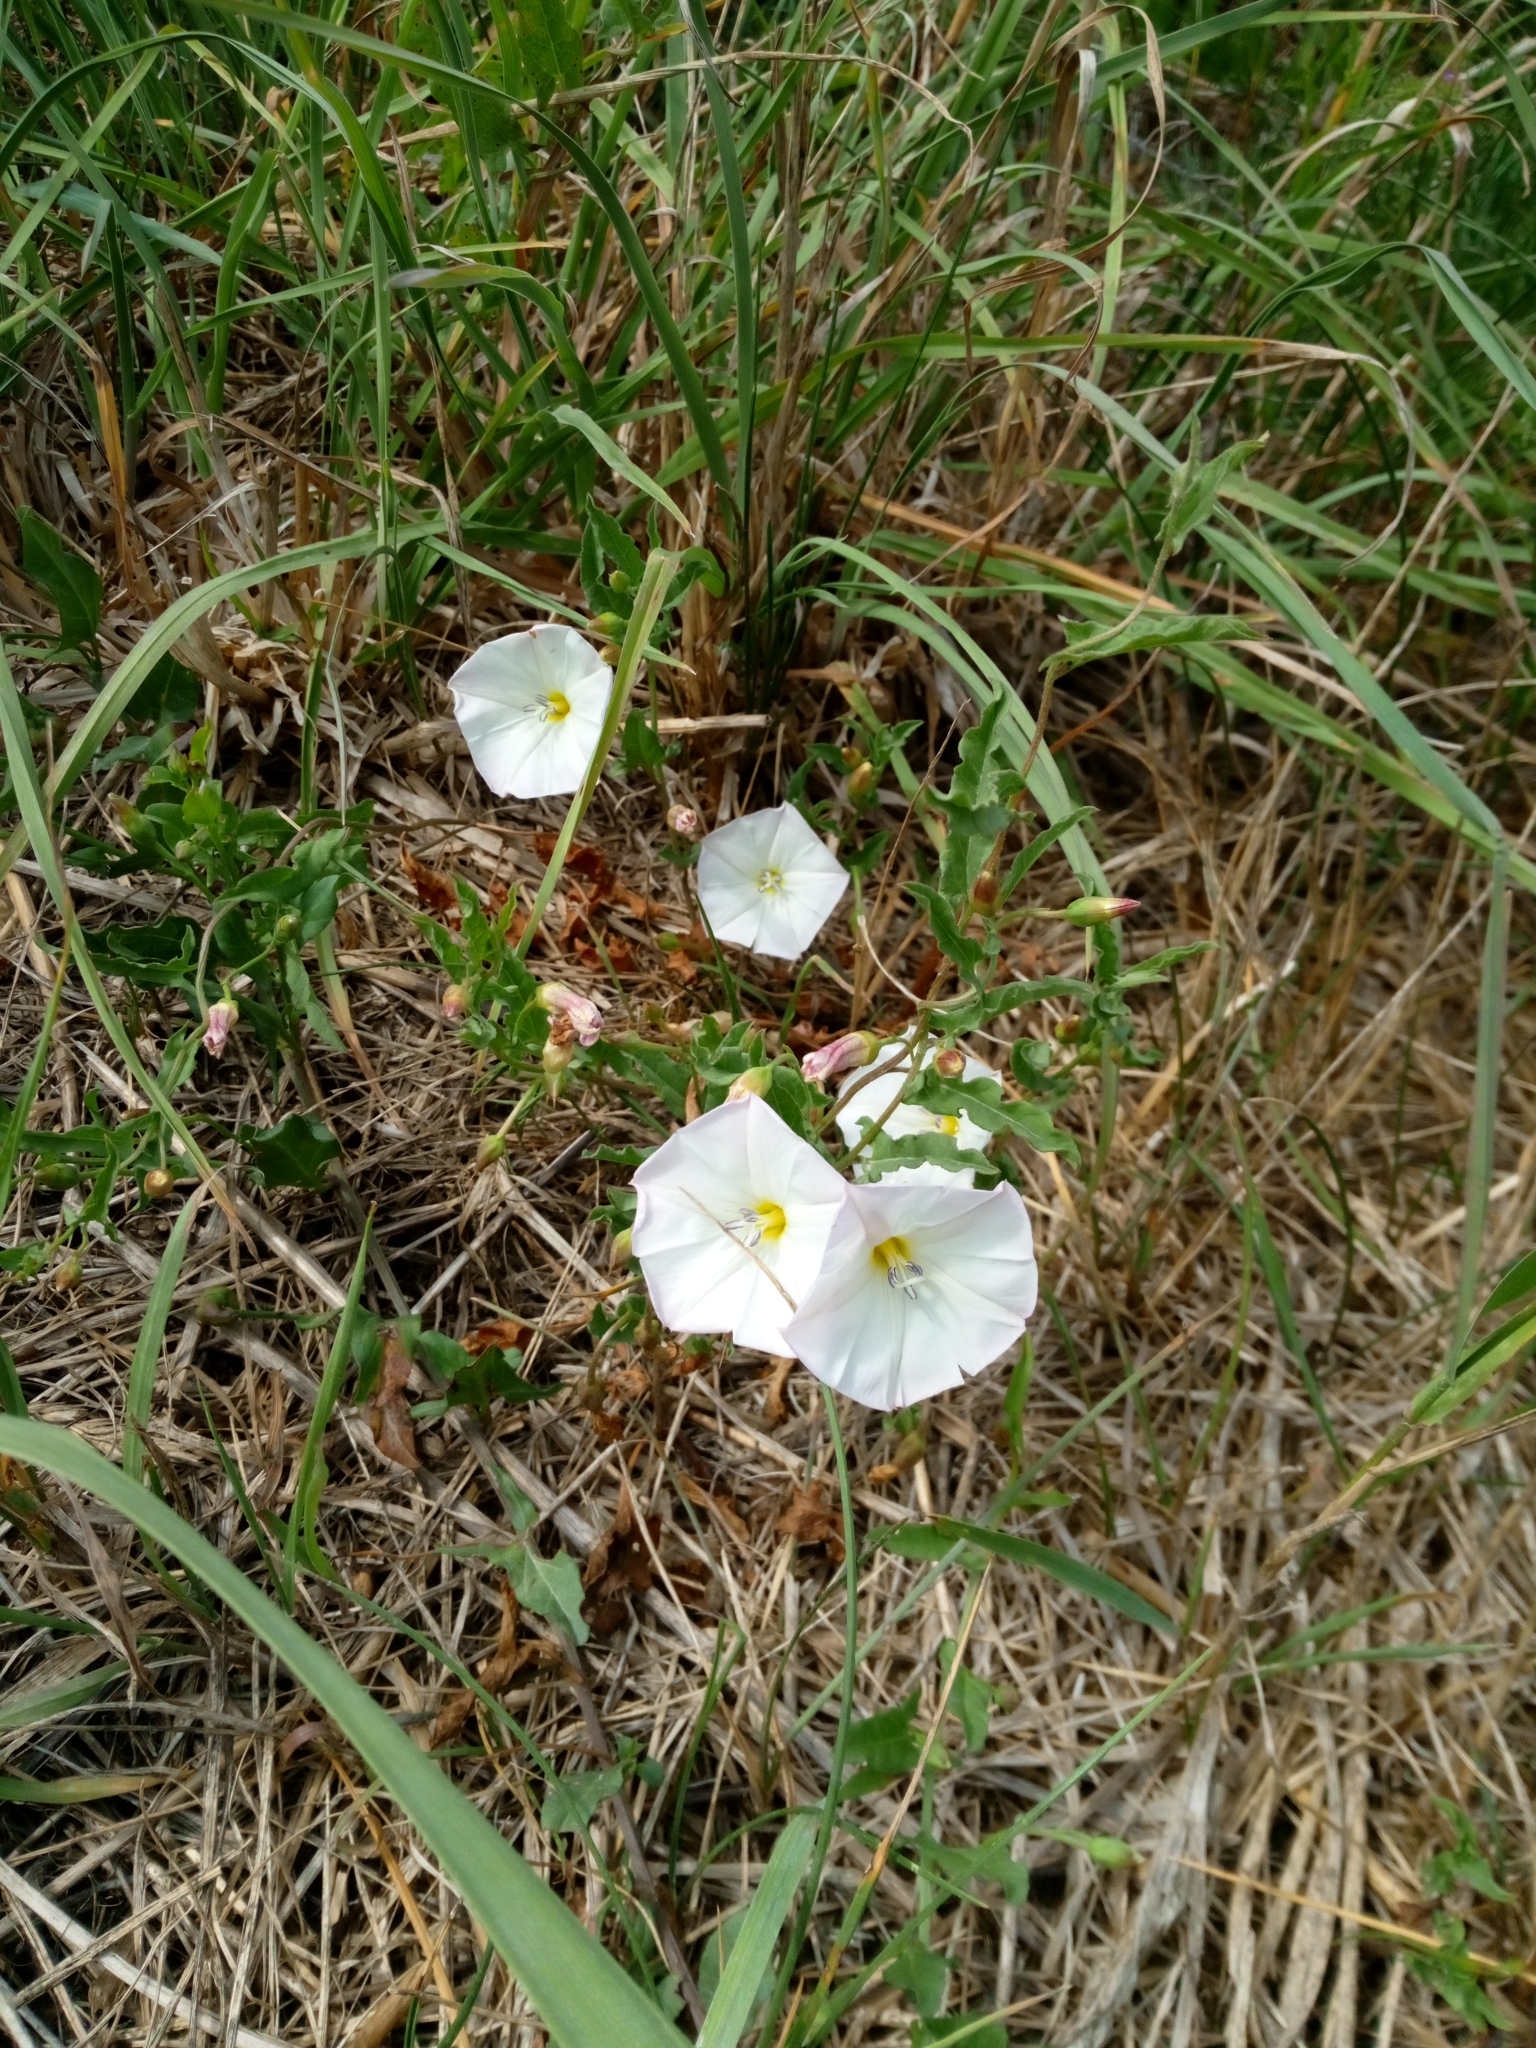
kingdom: Plantae
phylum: Tracheophyta
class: Magnoliopsida
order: Solanales
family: Convolvulaceae
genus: Convolvulus
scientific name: Convolvulus arvensis
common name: Field bindweed
